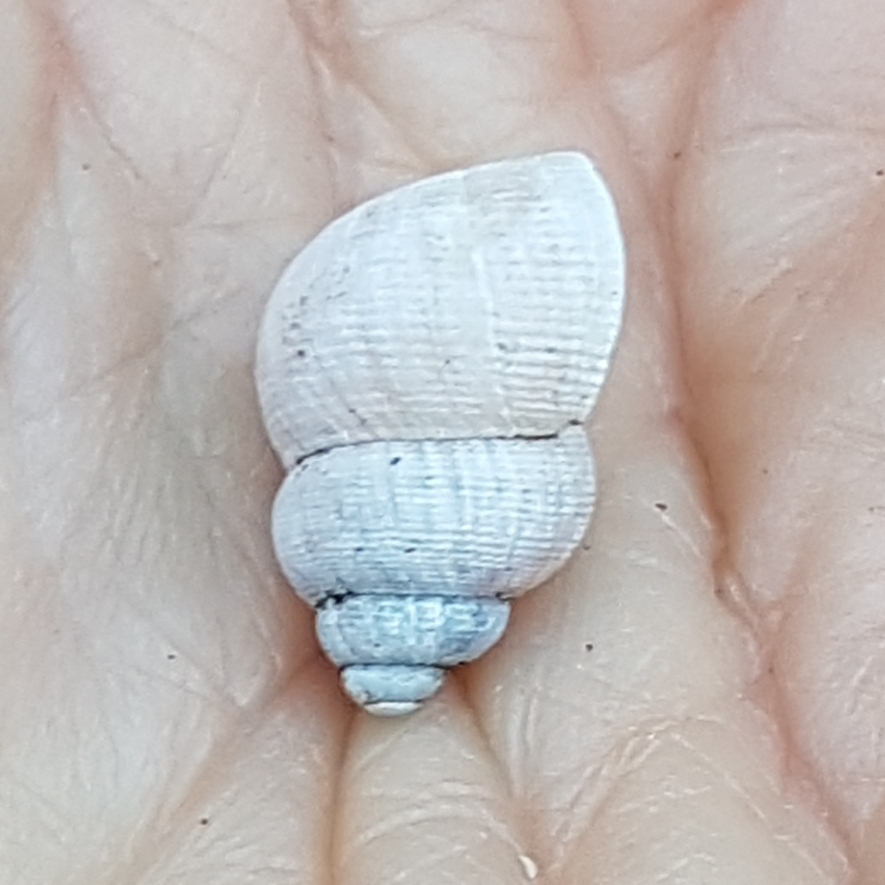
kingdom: Animalia
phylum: Mollusca
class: Gastropoda
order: Littorinimorpha
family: Pomatiidae
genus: Pomatias
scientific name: Pomatias elegans
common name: Red-mouthed snail
